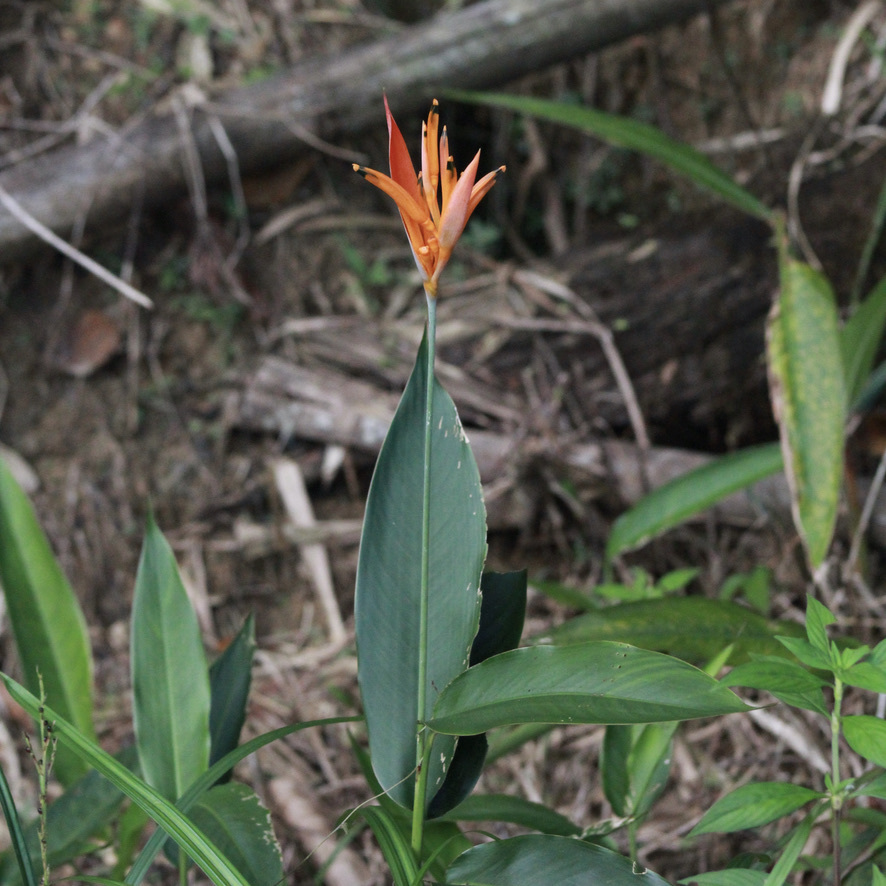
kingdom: Plantae
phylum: Tracheophyta
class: Liliopsida
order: Zingiberales
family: Heliconiaceae
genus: Heliconia
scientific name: Heliconia psittacorum
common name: Parrot's-flower
